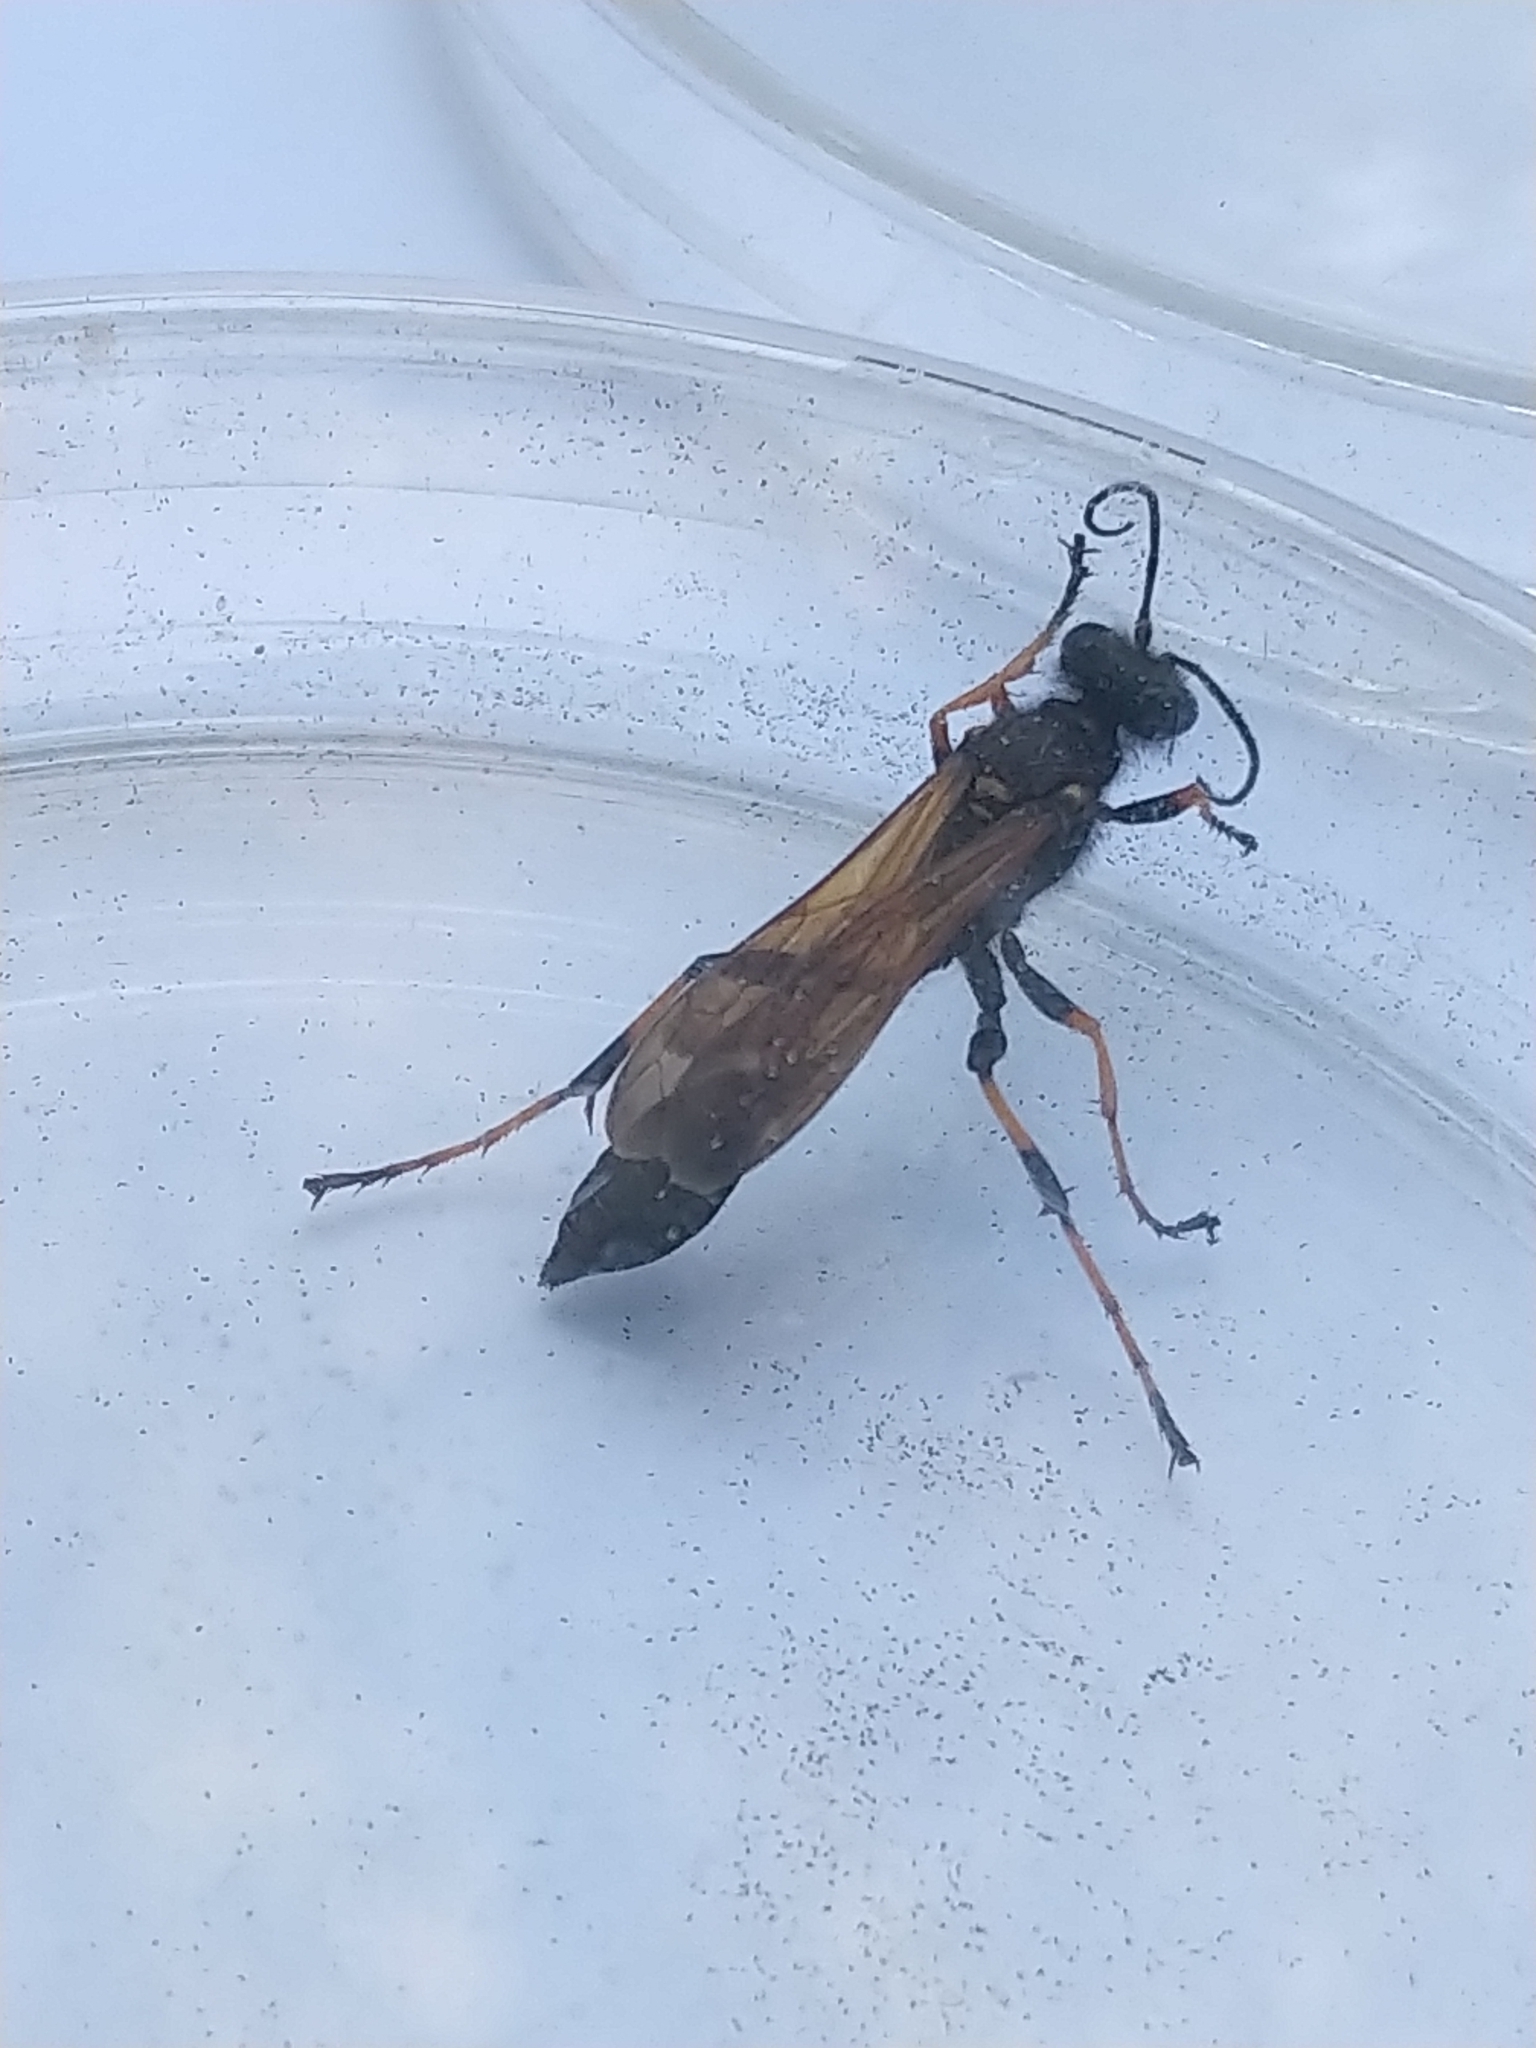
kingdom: Animalia
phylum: Arthropoda
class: Insecta
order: Hymenoptera
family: Sphecidae
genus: Sceliphron
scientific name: Sceliphron caementarium
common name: Mud dauber
